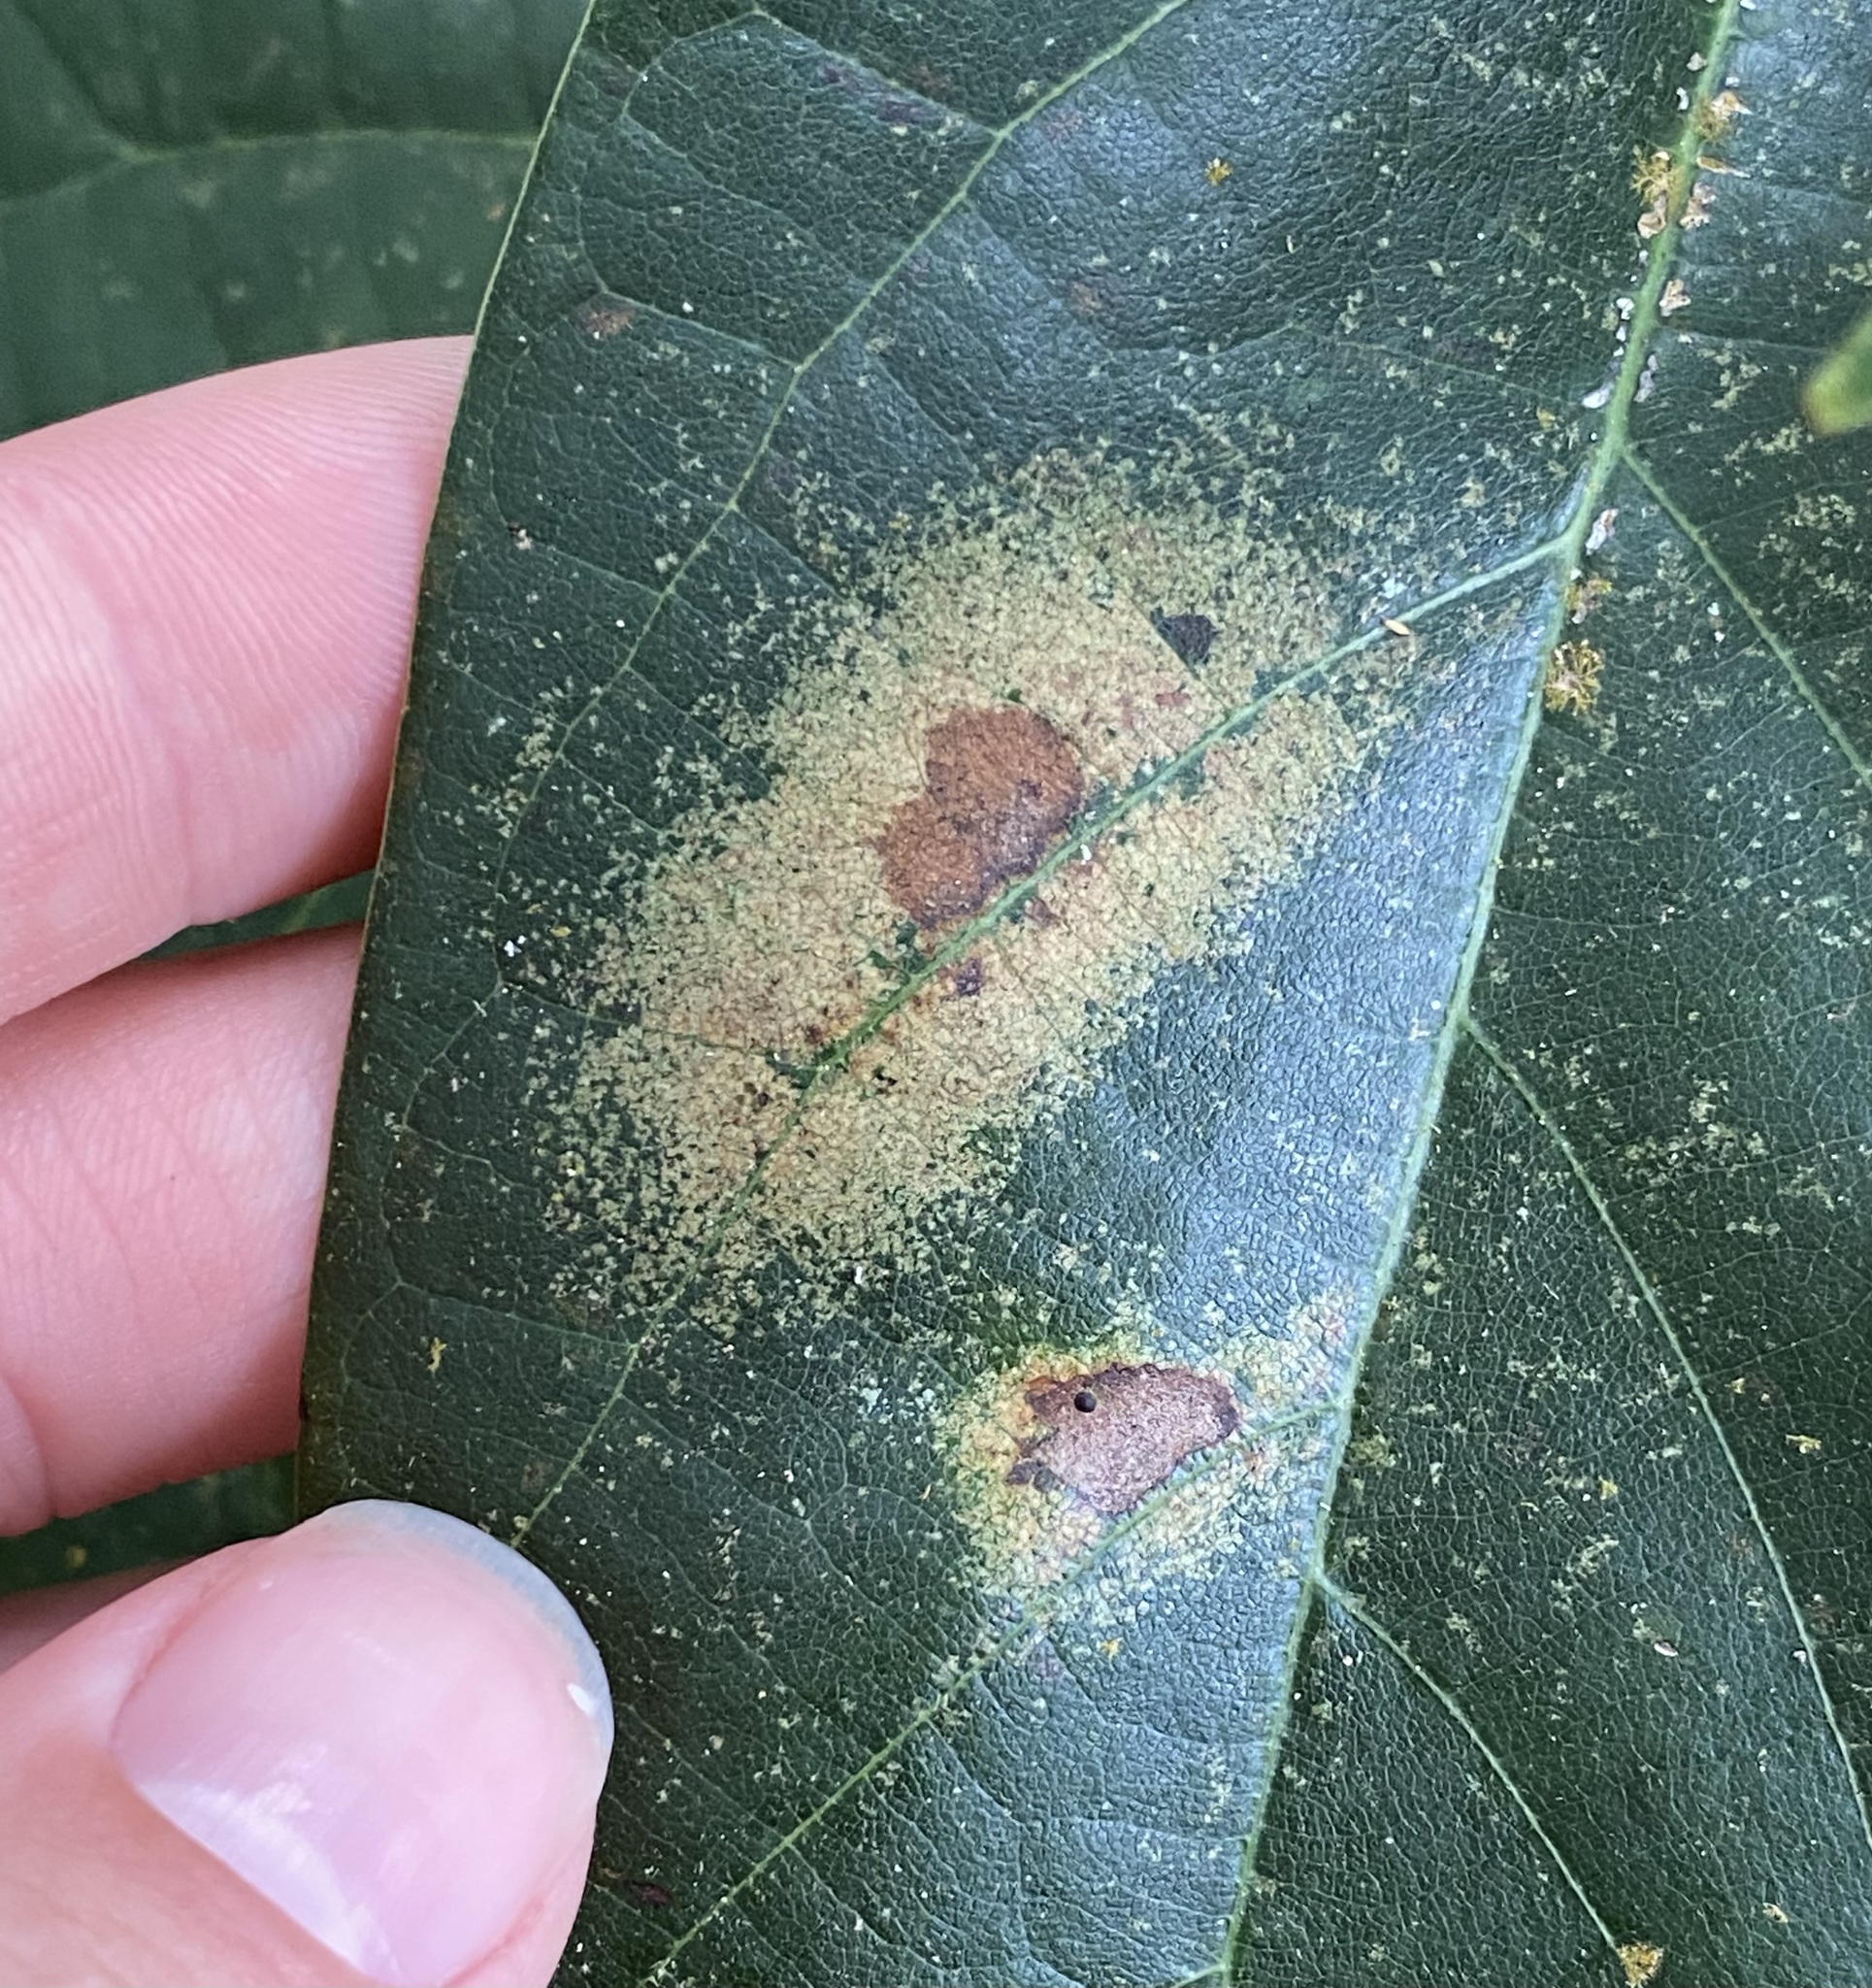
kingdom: Animalia
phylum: Arthropoda
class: Insecta
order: Hemiptera
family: Tingidae
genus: Pseudacysta
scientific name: Pseudacysta perseae
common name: Avocado lace bug
